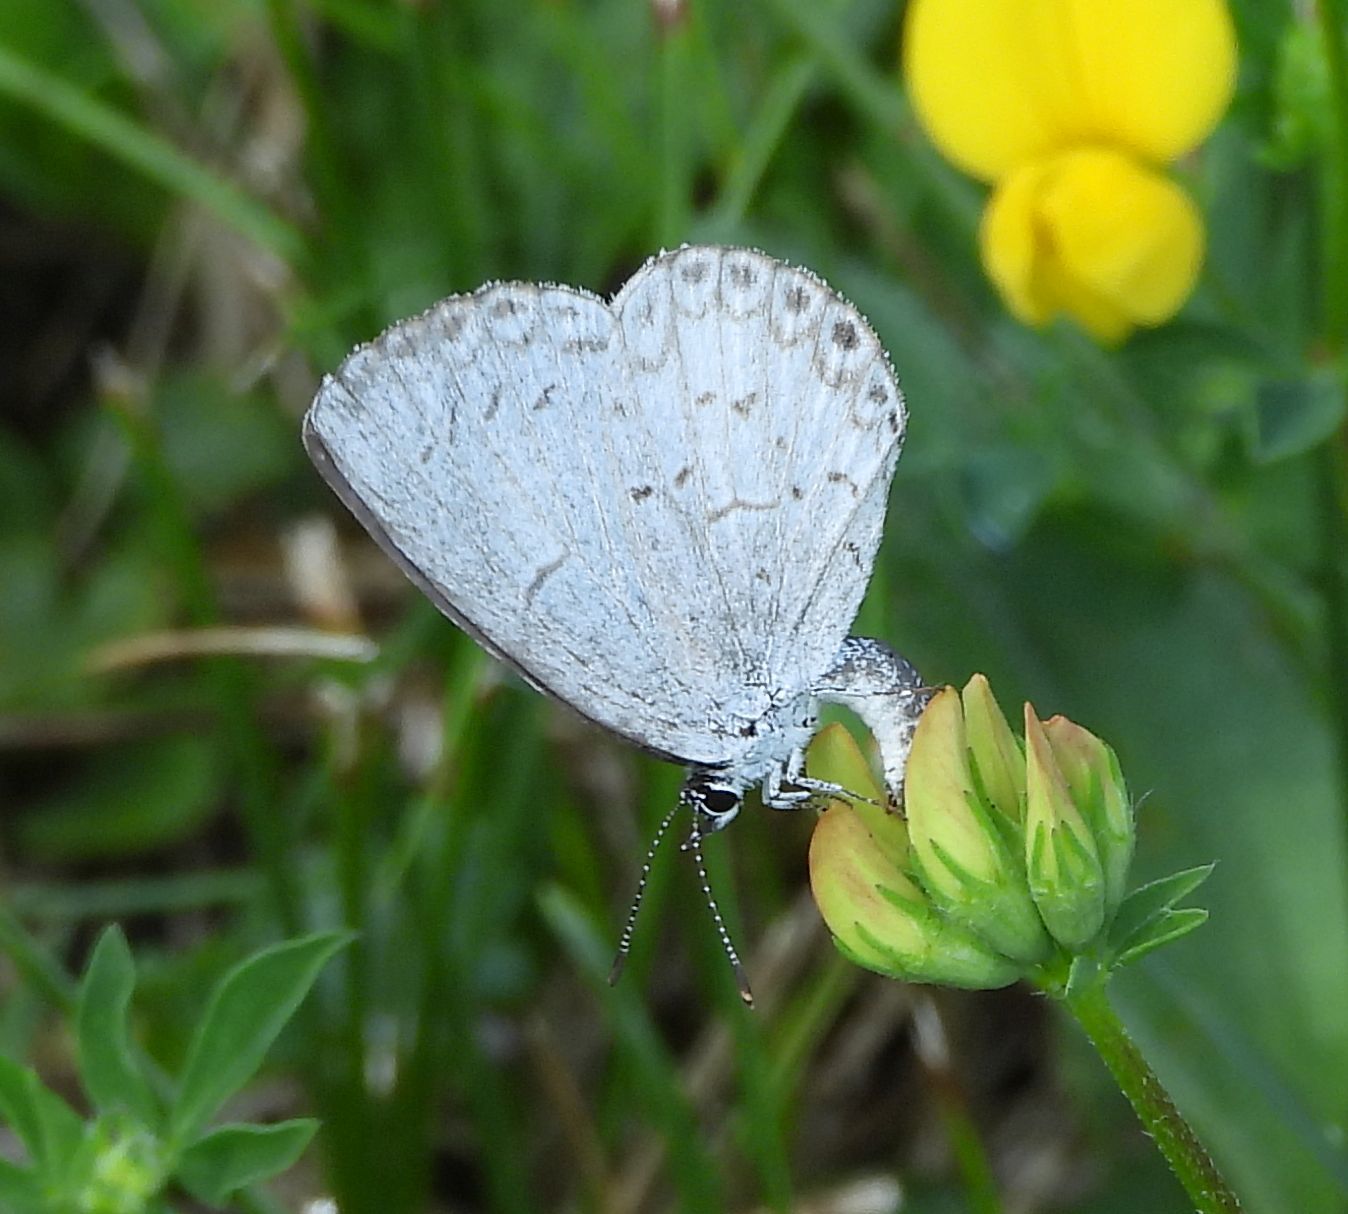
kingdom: Animalia
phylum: Arthropoda
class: Insecta
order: Lepidoptera
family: Lycaenidae
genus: Celastrina
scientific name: Celastrina lucia
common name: Lucia azure
